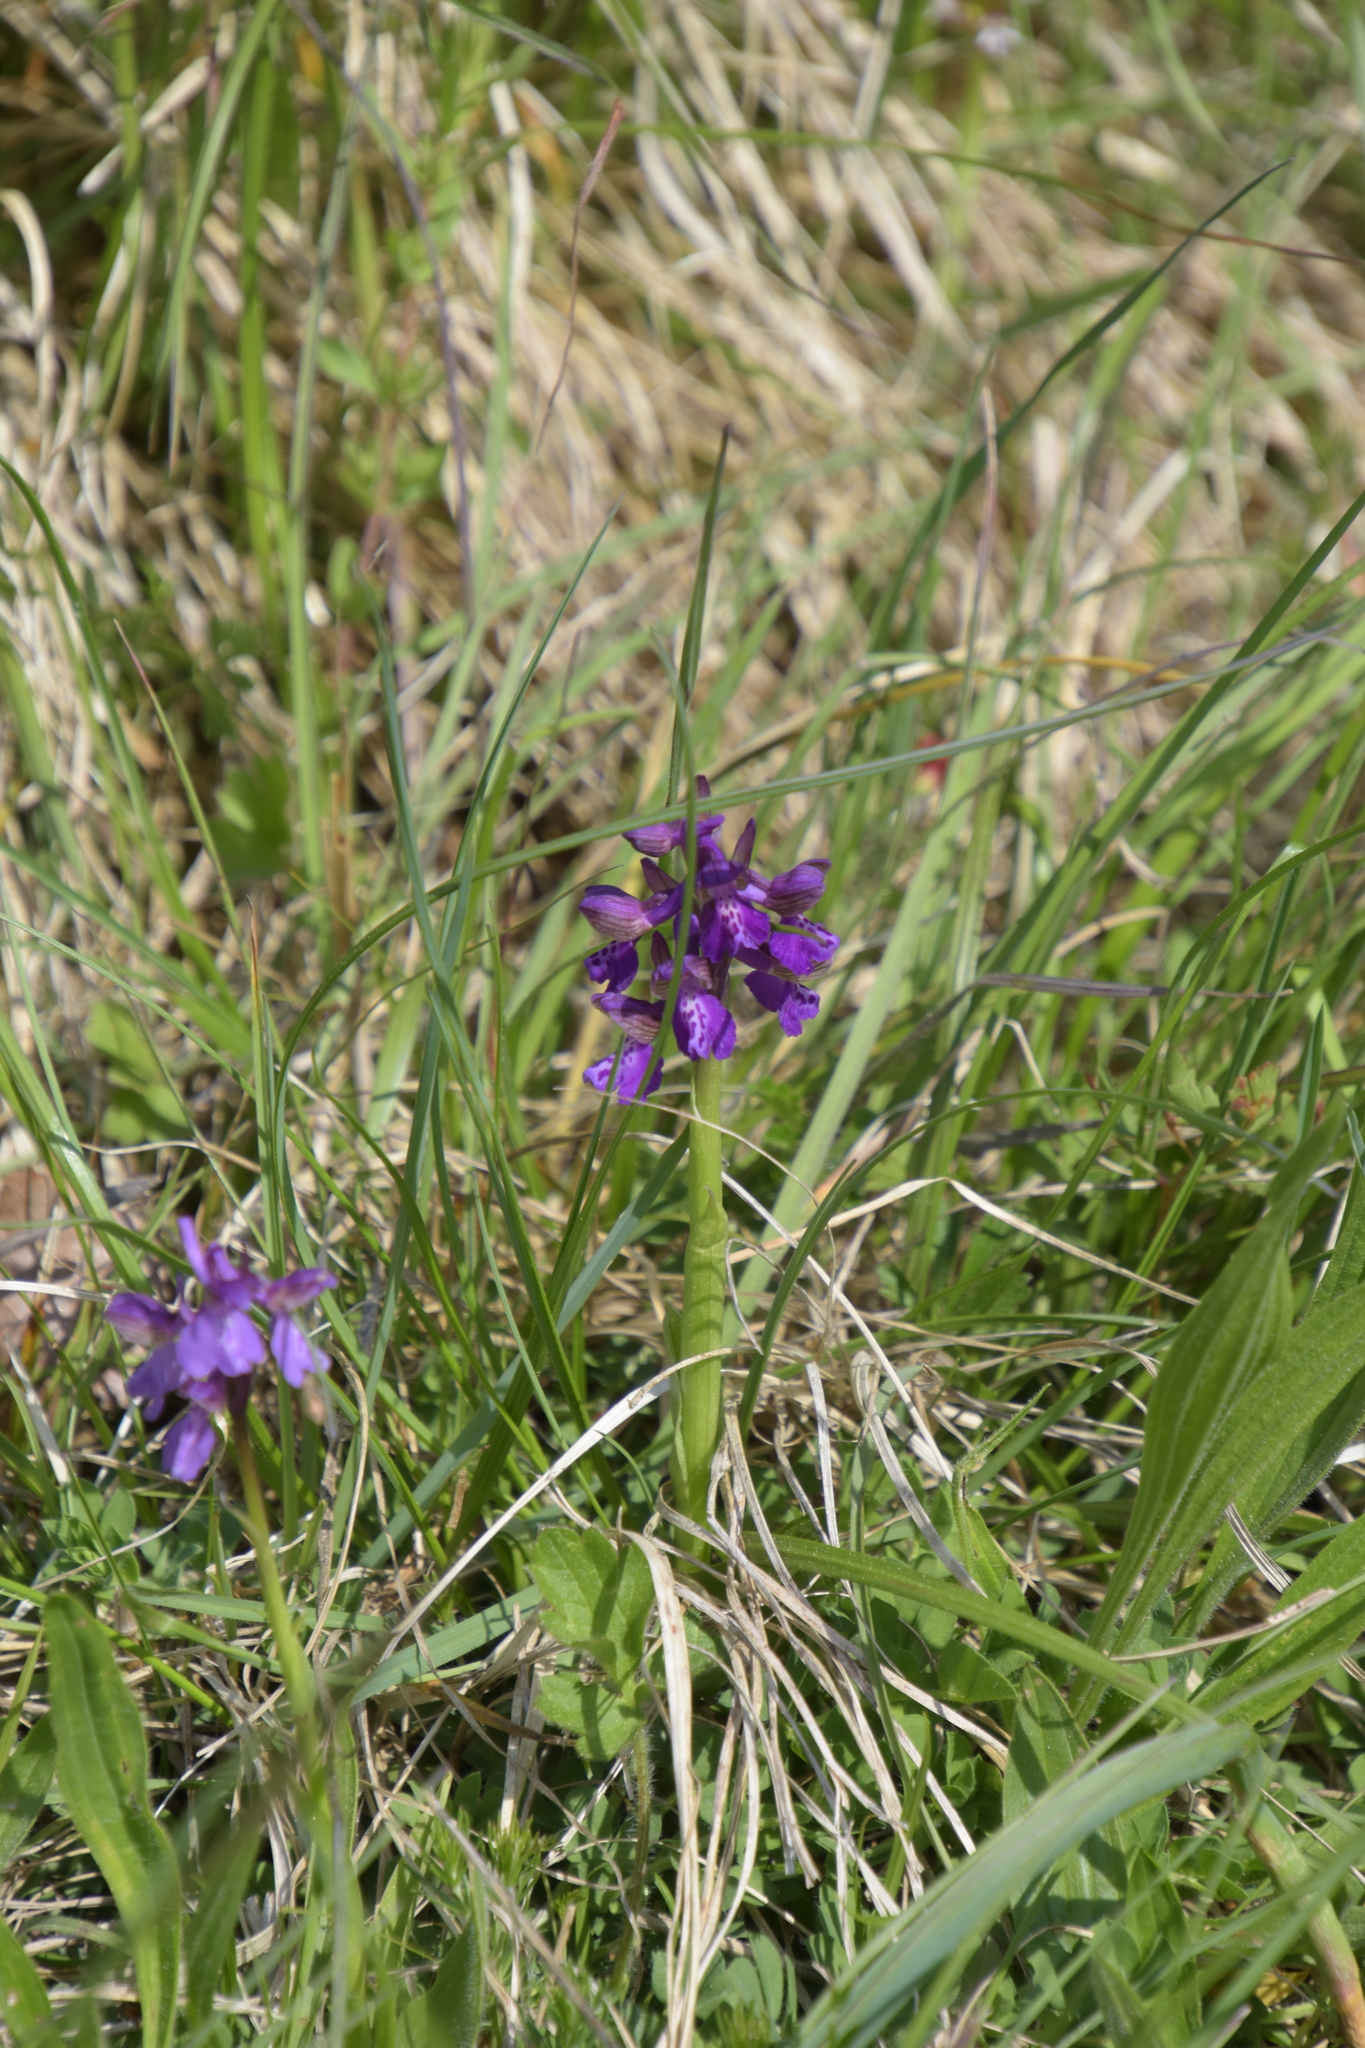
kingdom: Plantae
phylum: Tracheophyta
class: Liliopsida
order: Asparagales
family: Orchidaceae
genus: Anacamptis
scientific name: Anacamptis morio
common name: Green-winged orchid
